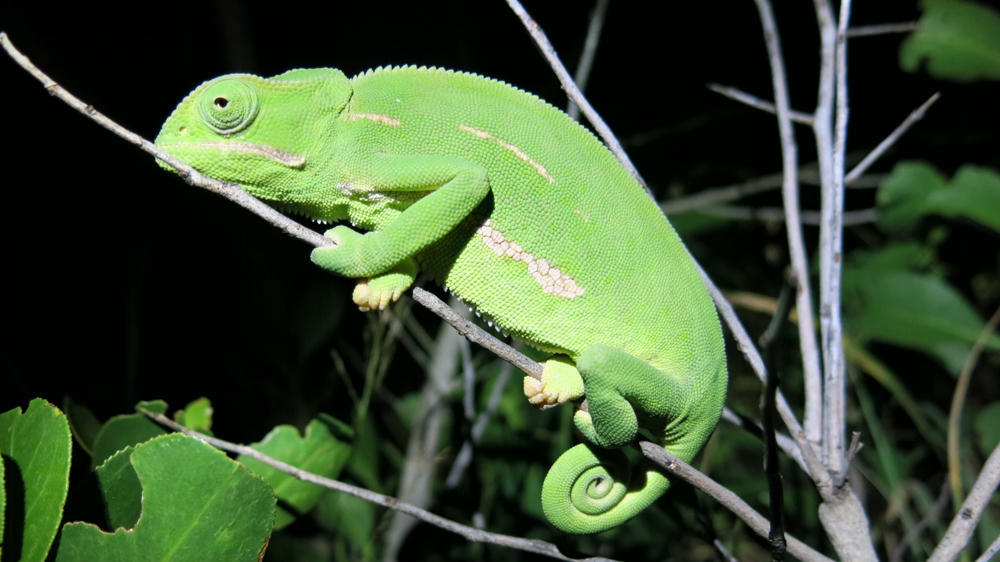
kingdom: Animalia
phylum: Chordata
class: Squamata
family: Chamaeleonidae
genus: Chamaeleo
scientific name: Chamaeleo dilepis
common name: Flapneck chameleon
